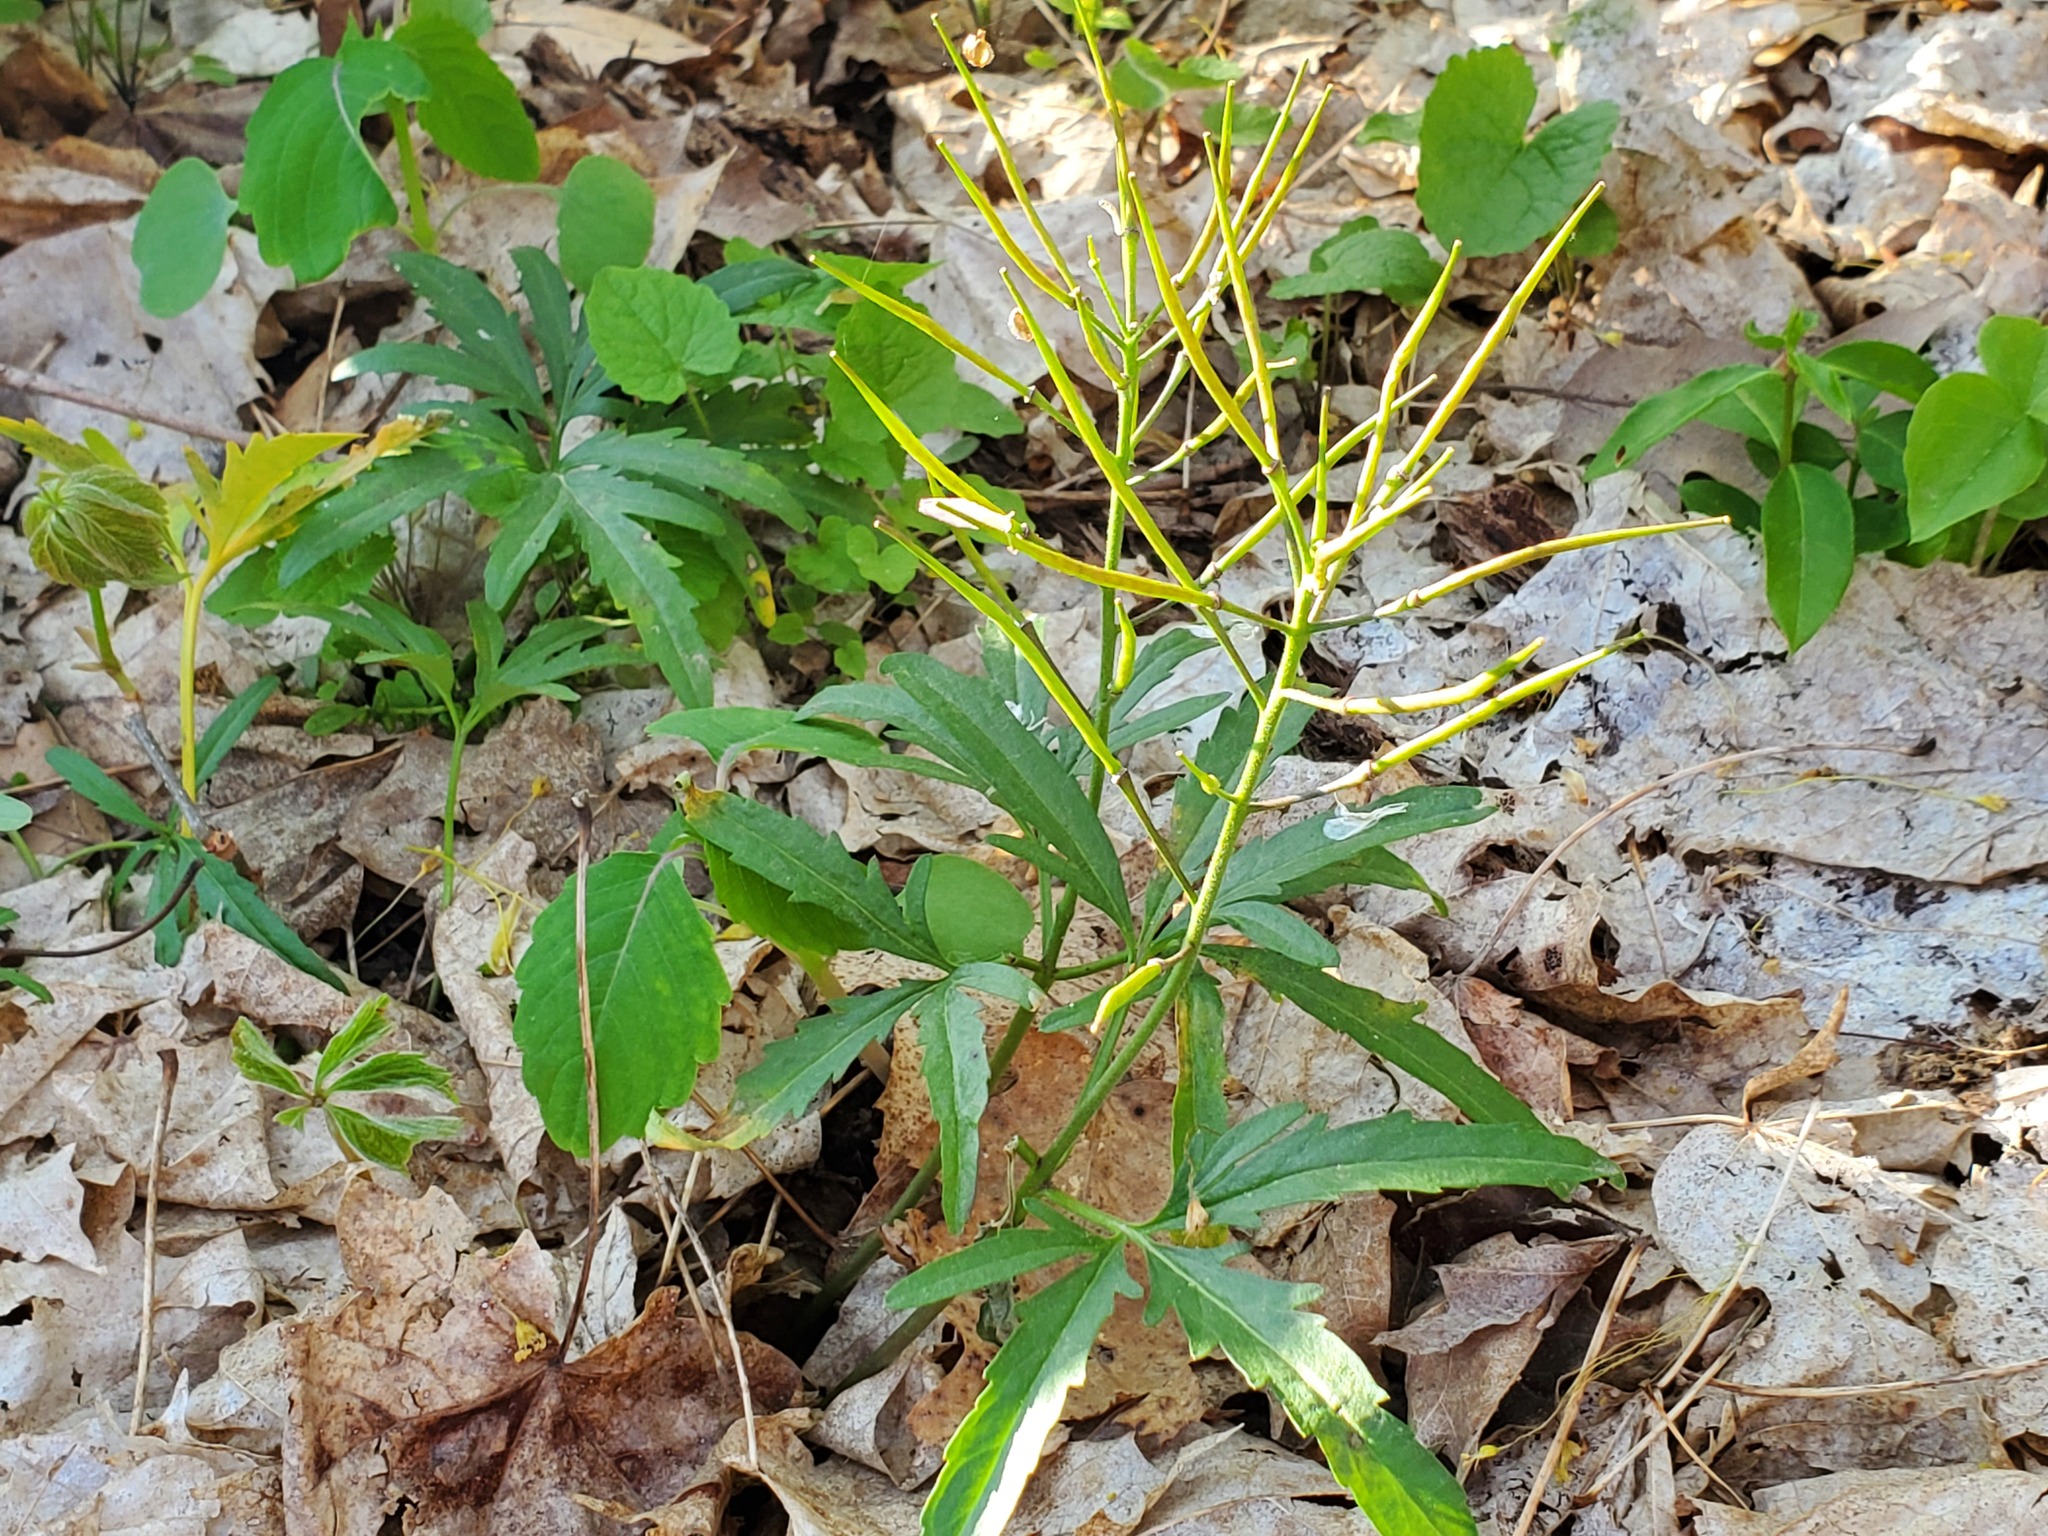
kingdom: Plantae
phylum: Tracheophyta
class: Magnoliopsida
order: Brassicales
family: Brassicaceae
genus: Cardamine
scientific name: Cardamine concatenata
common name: Cut-leaf toothcup
